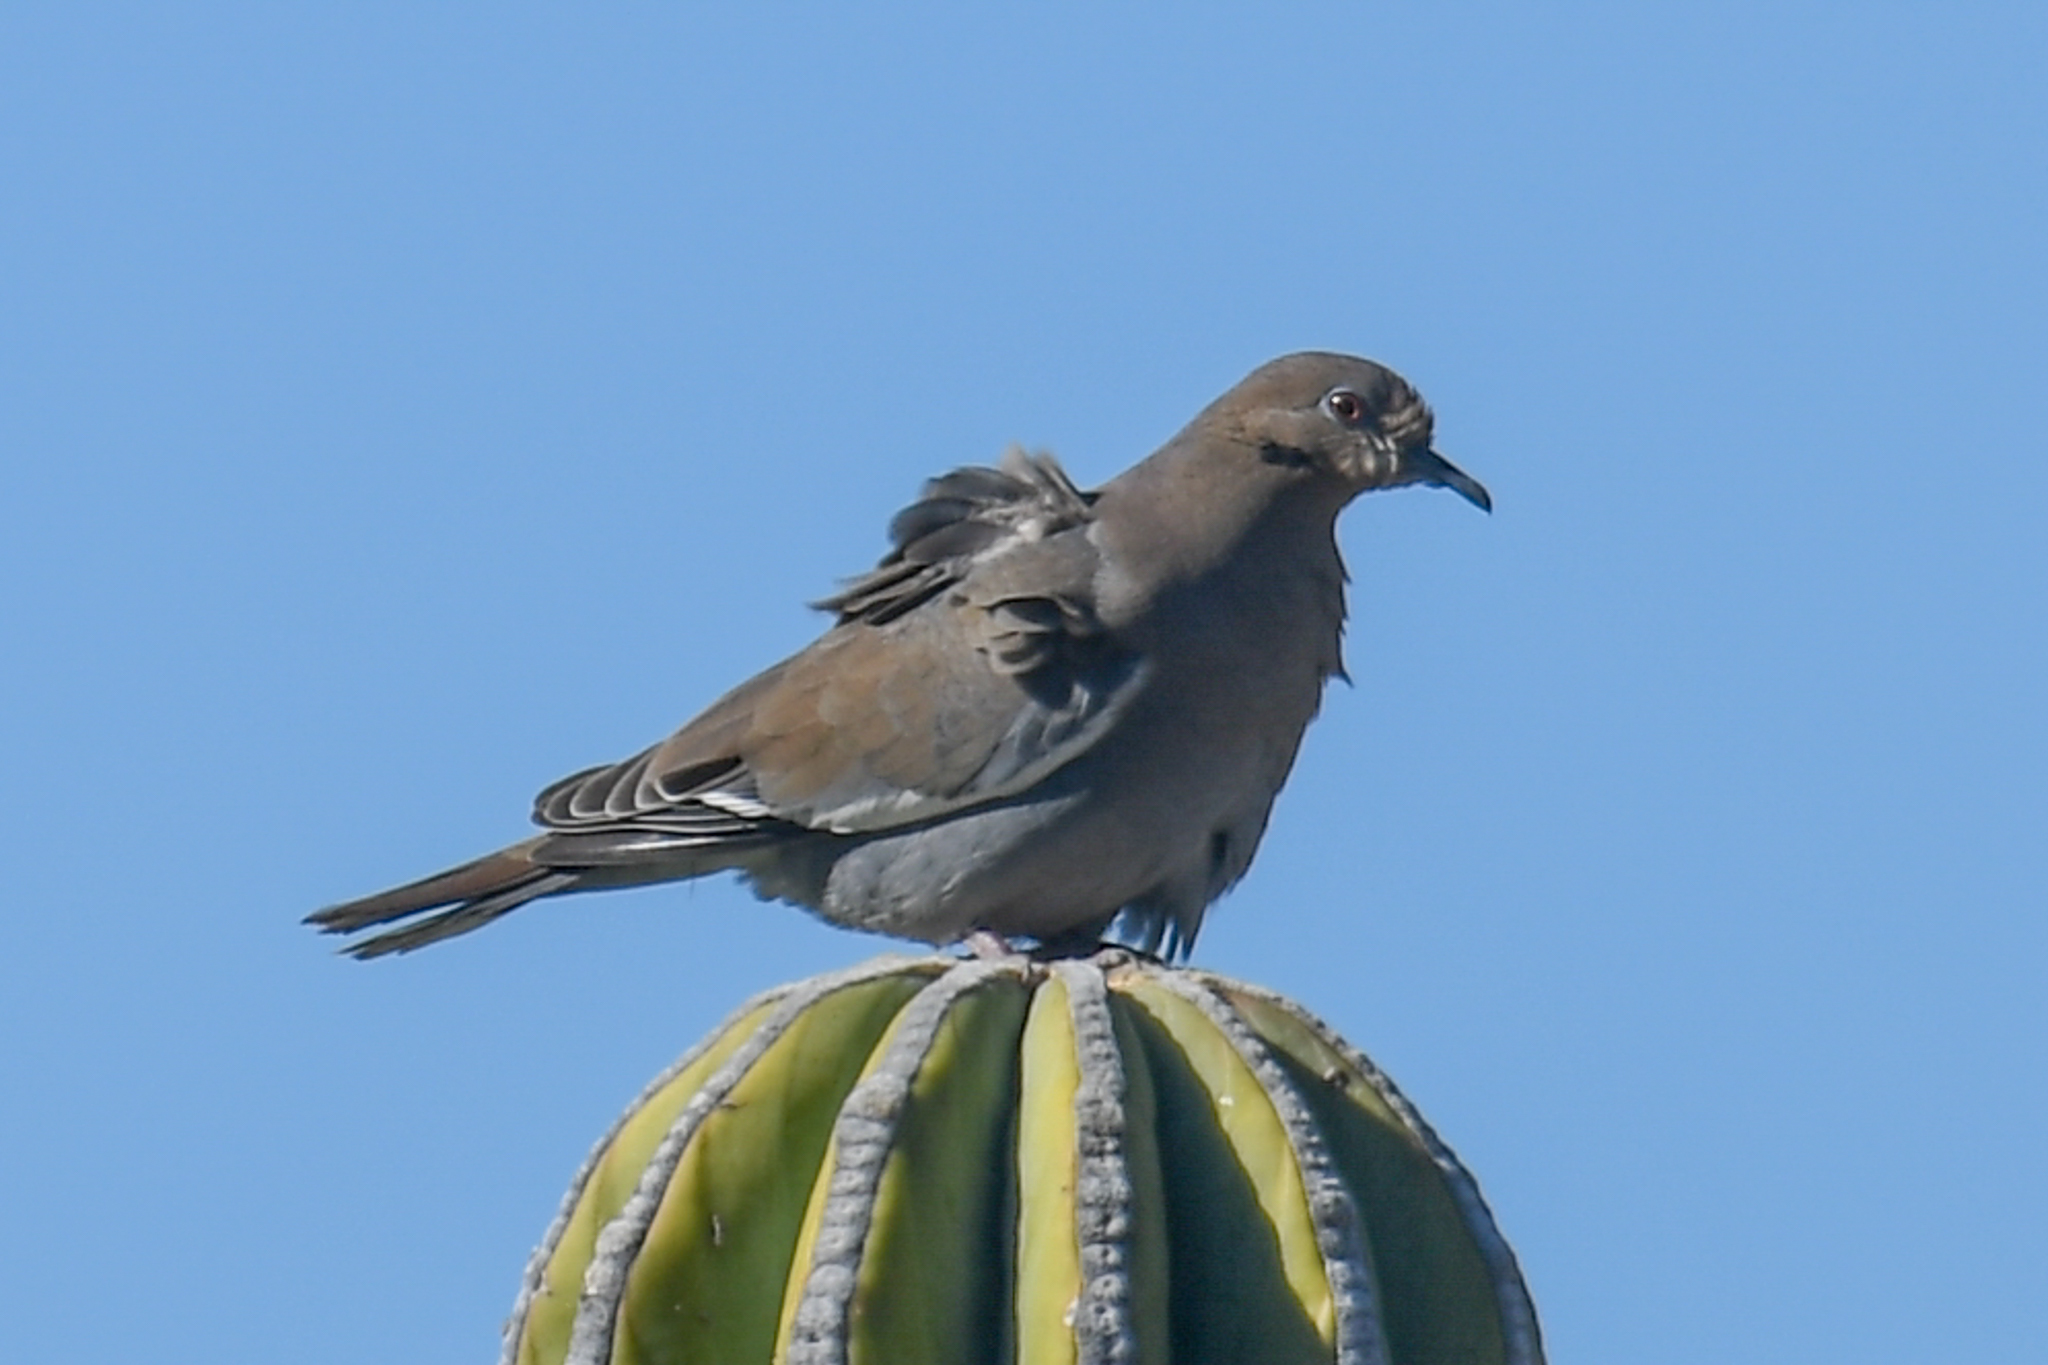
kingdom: Animalia
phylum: Chordata
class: Aves
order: Columbiformes
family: Columbidae
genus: Zenaida
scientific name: Zenaida asiatica
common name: White-winged dove
